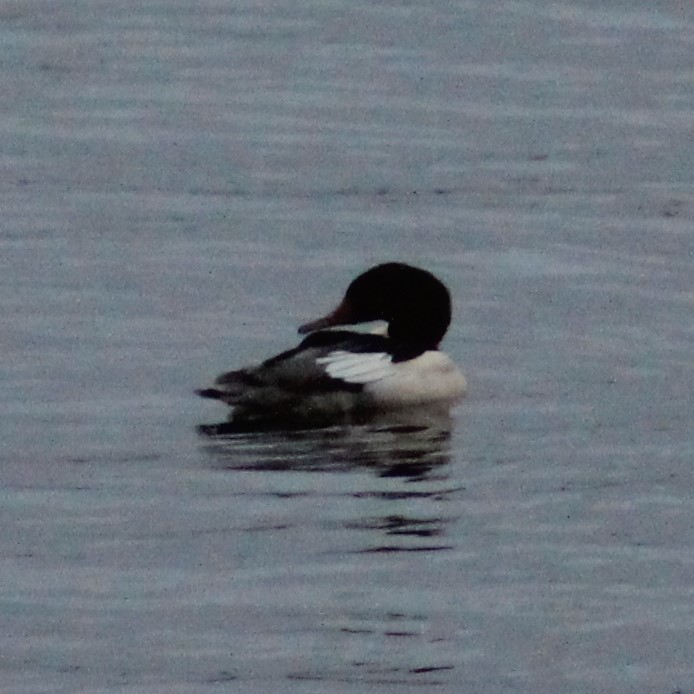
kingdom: Animalia
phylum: Chordata
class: Aves
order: Anseriformes
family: Anatidae
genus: Mergus
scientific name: Mergus merganser
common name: Common merganser
